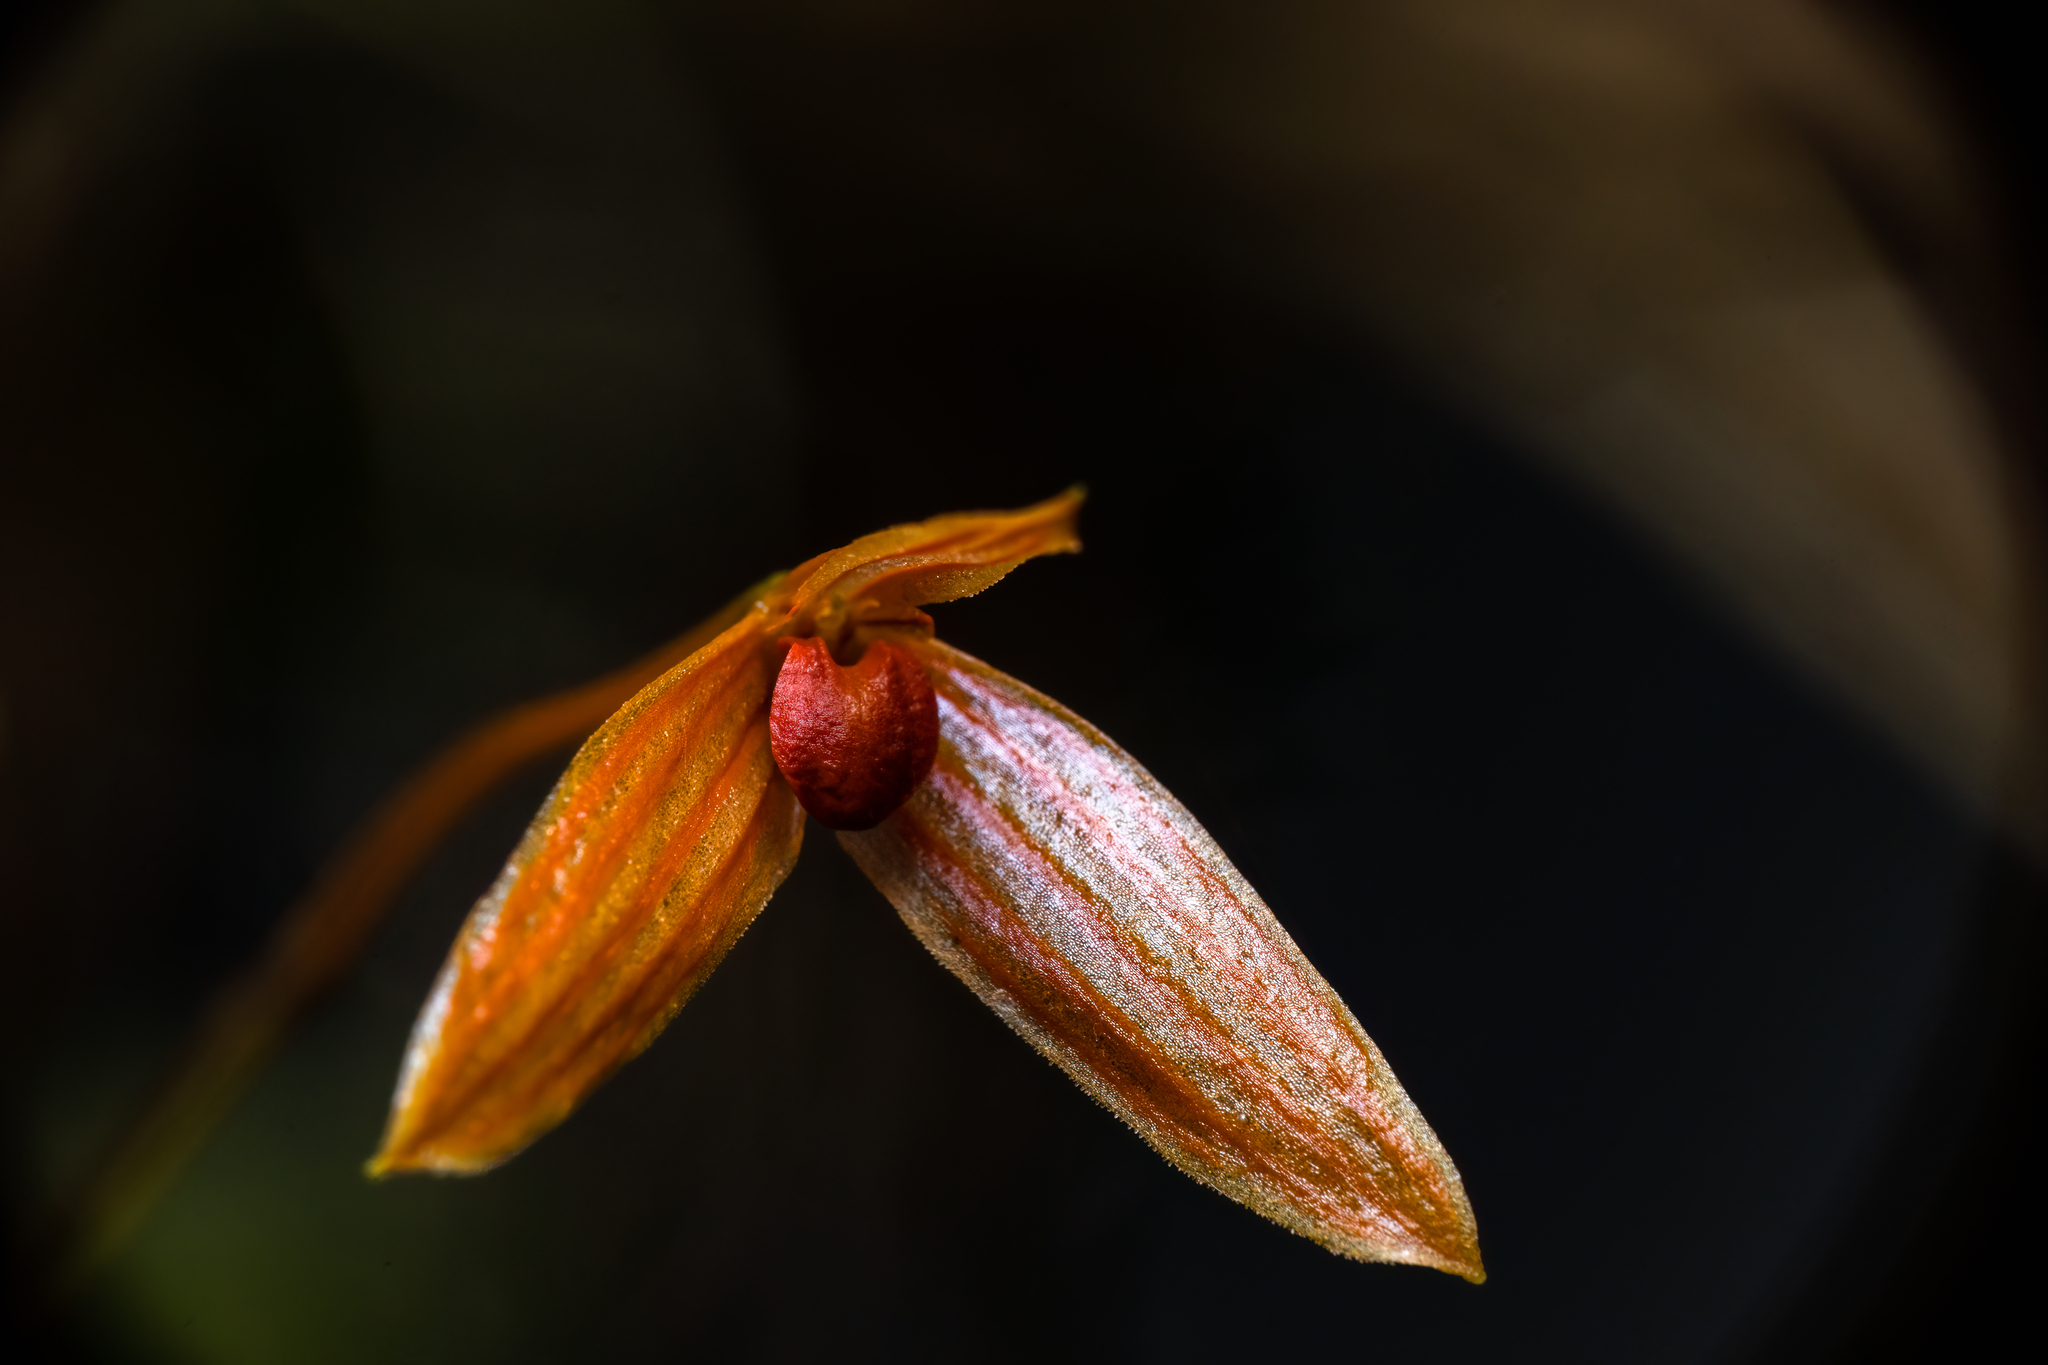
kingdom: Plantae
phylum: Tracheophyta
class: Liliopsida
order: Asparagales
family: Orchidaceae
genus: Bulbophyllum
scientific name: Bulbophyllum montense
